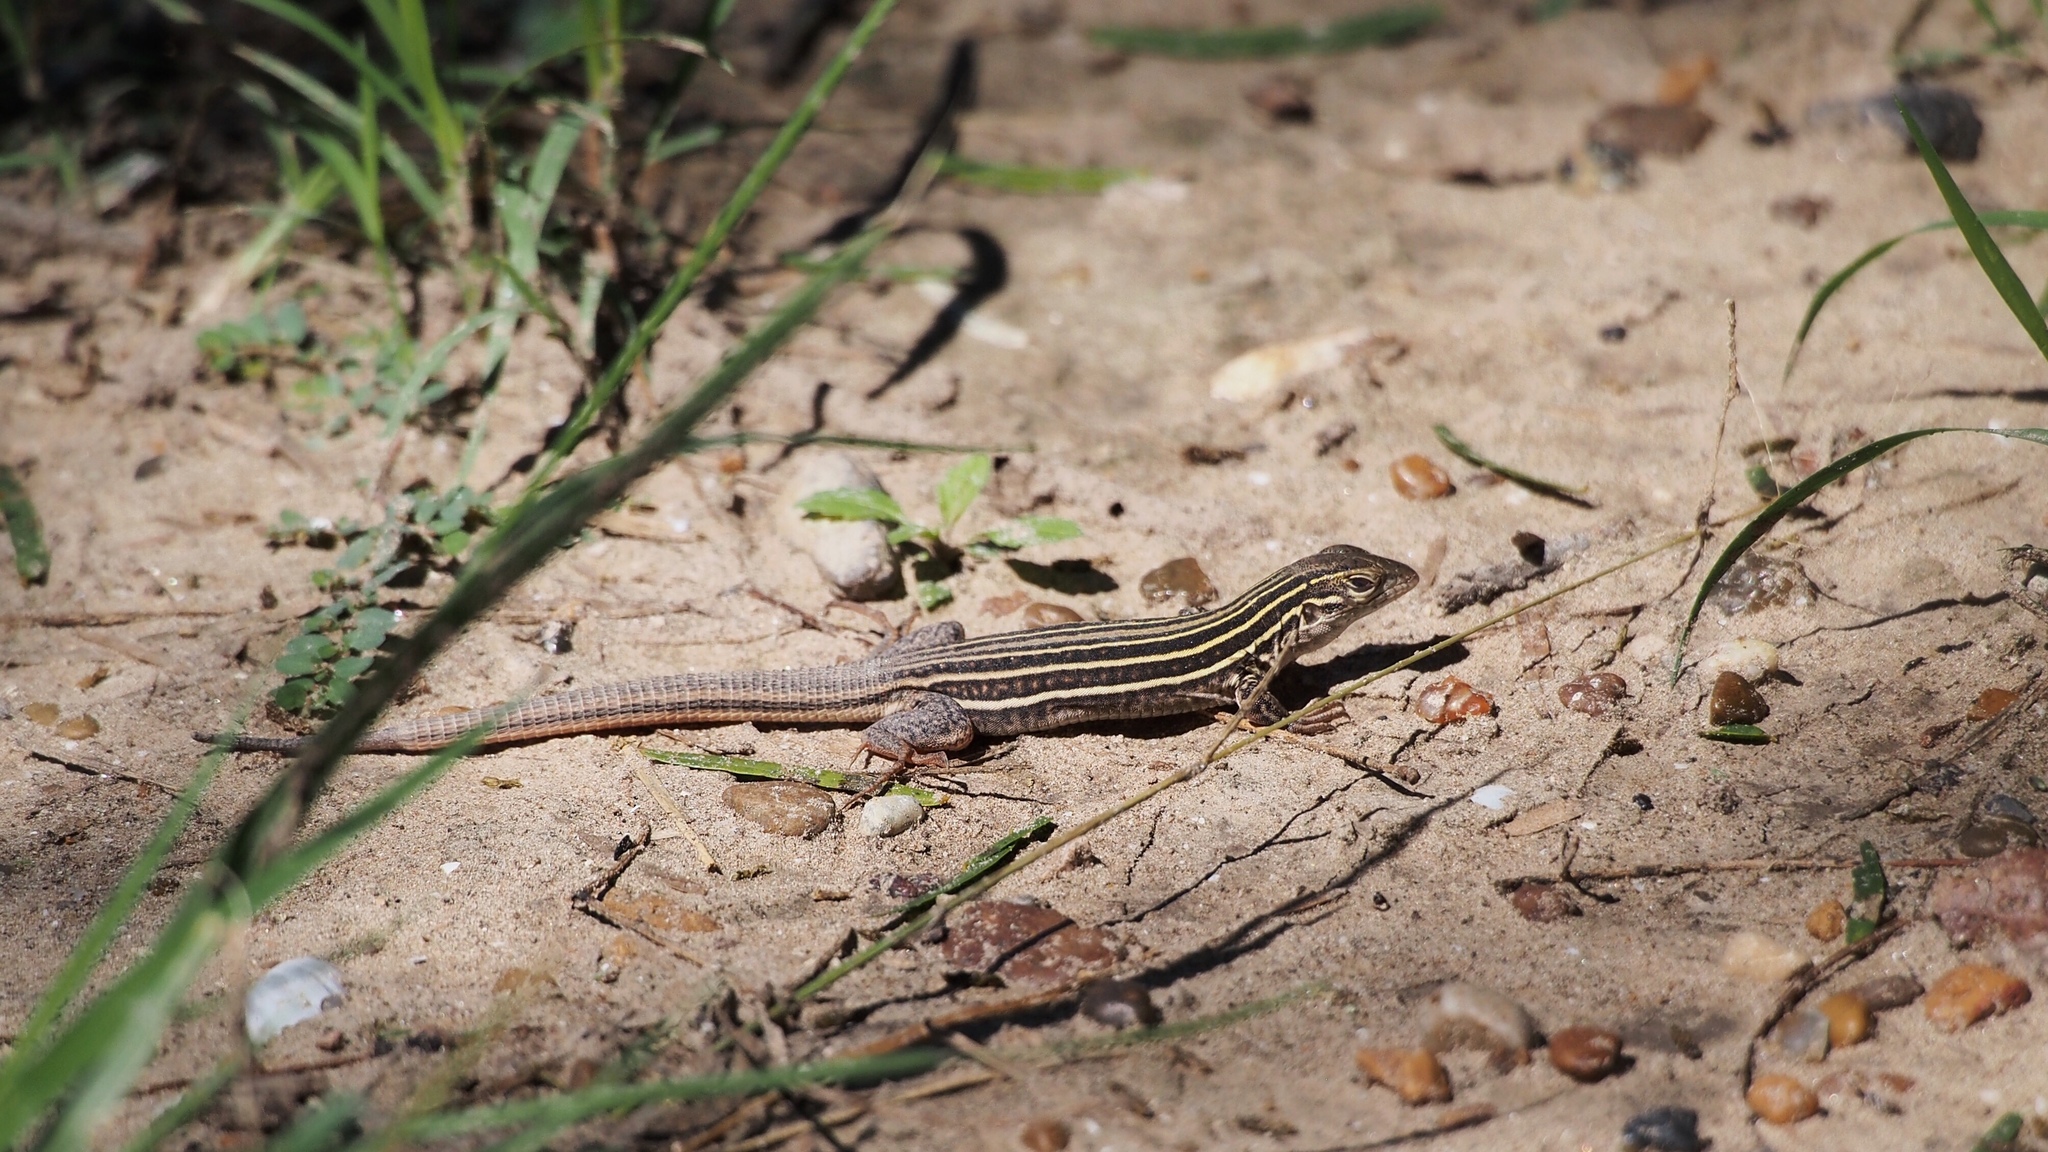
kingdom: Animalia
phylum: Chordata
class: Squamata
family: Teiidae
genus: Aspidoscelis
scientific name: Aspidoscelis gularis
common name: Eastern spotted whiptail
